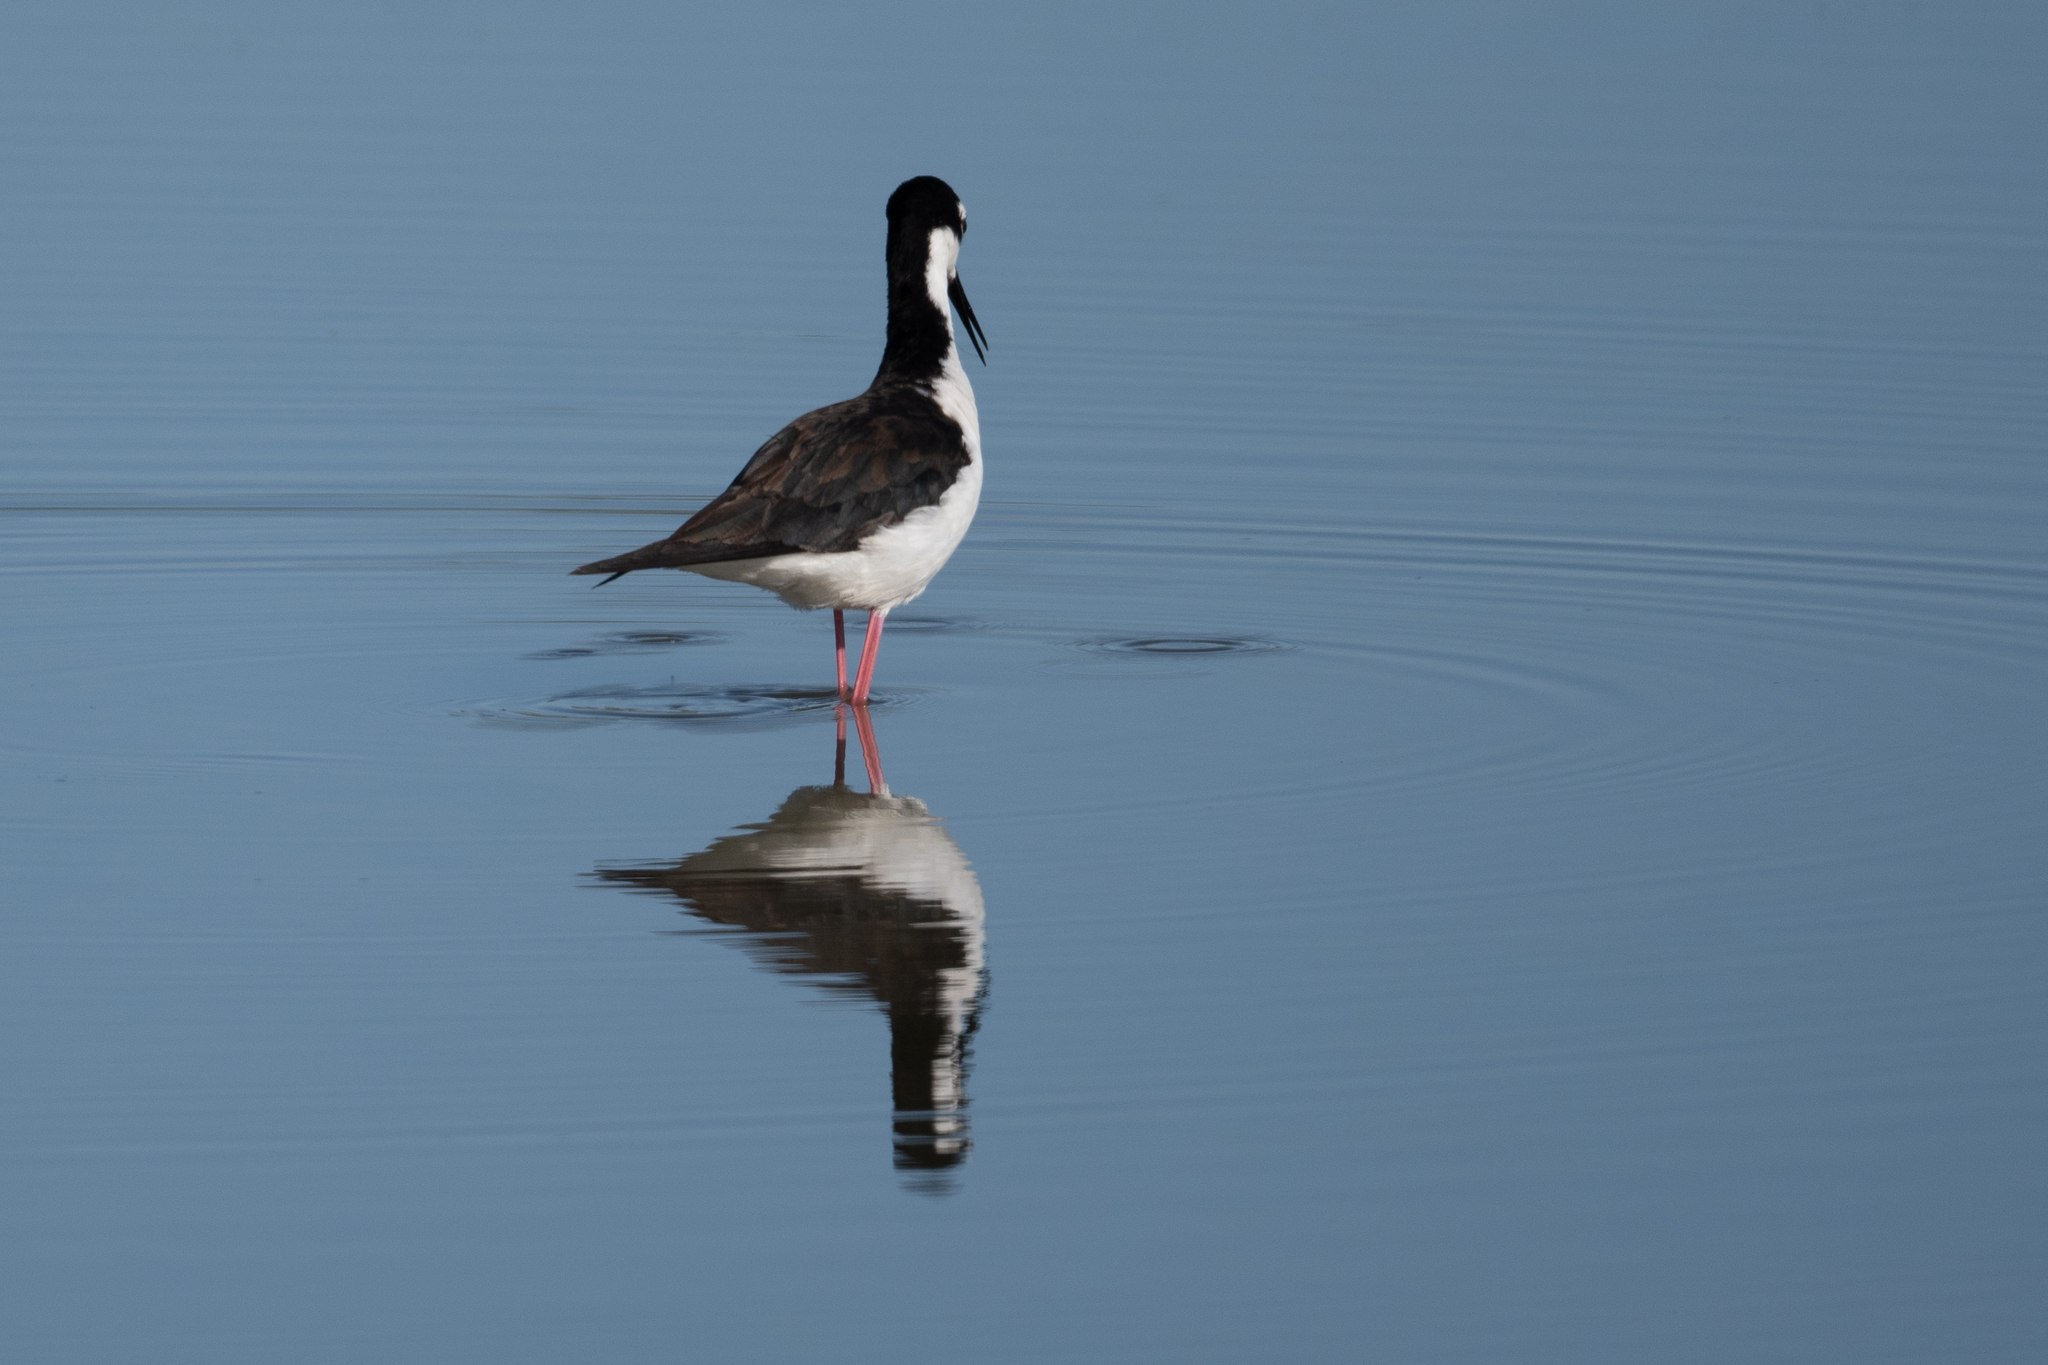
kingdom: Animalia
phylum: Chordata
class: Aves
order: Charadriiformes
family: Recurvirostridae
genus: Himantopus
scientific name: Himantopus mexicanus
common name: Black-necked stilt
